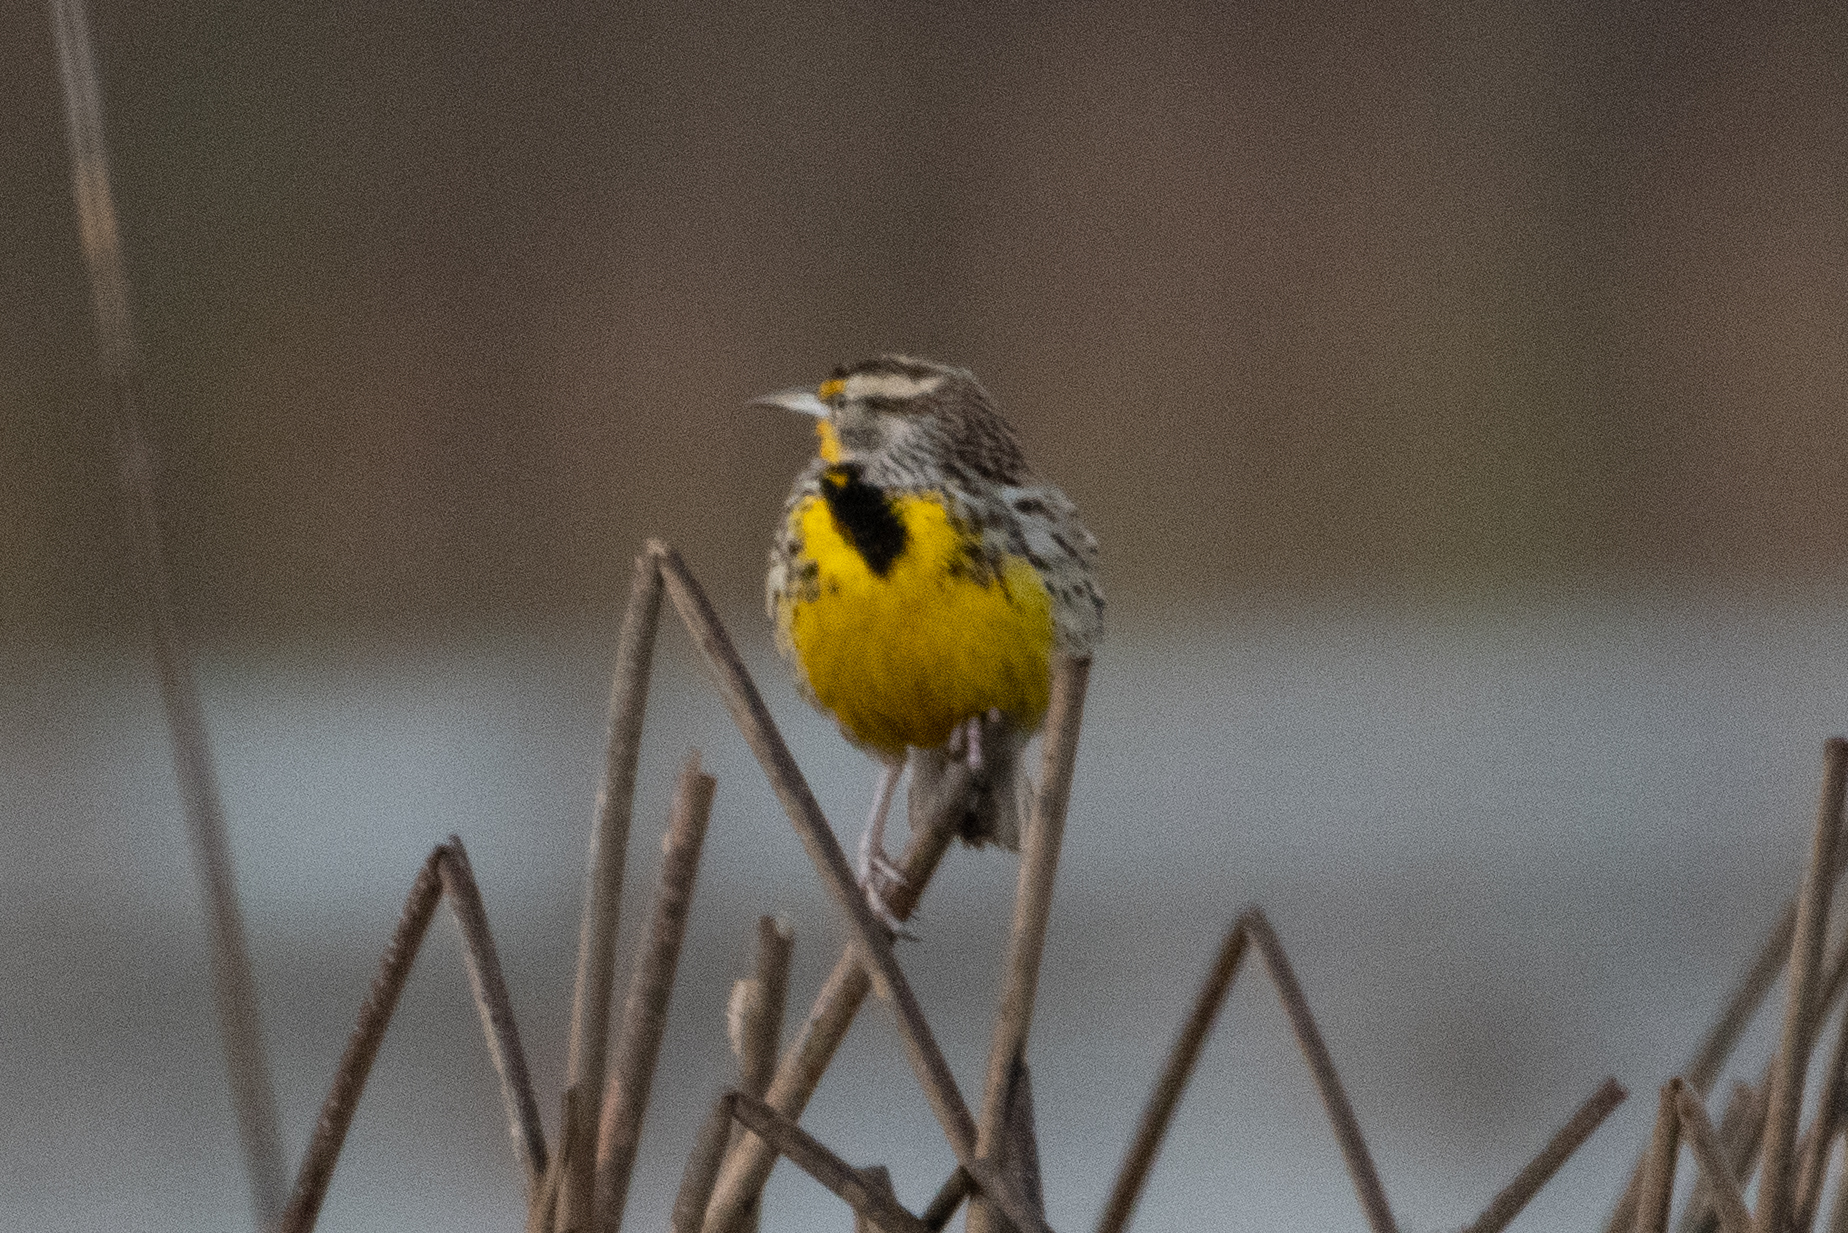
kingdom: Animalia
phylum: Chordata
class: Aves
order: Passeriformes
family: Icteridae
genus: Sturnella
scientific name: Sturnella neglecta
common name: Western meadowlark
